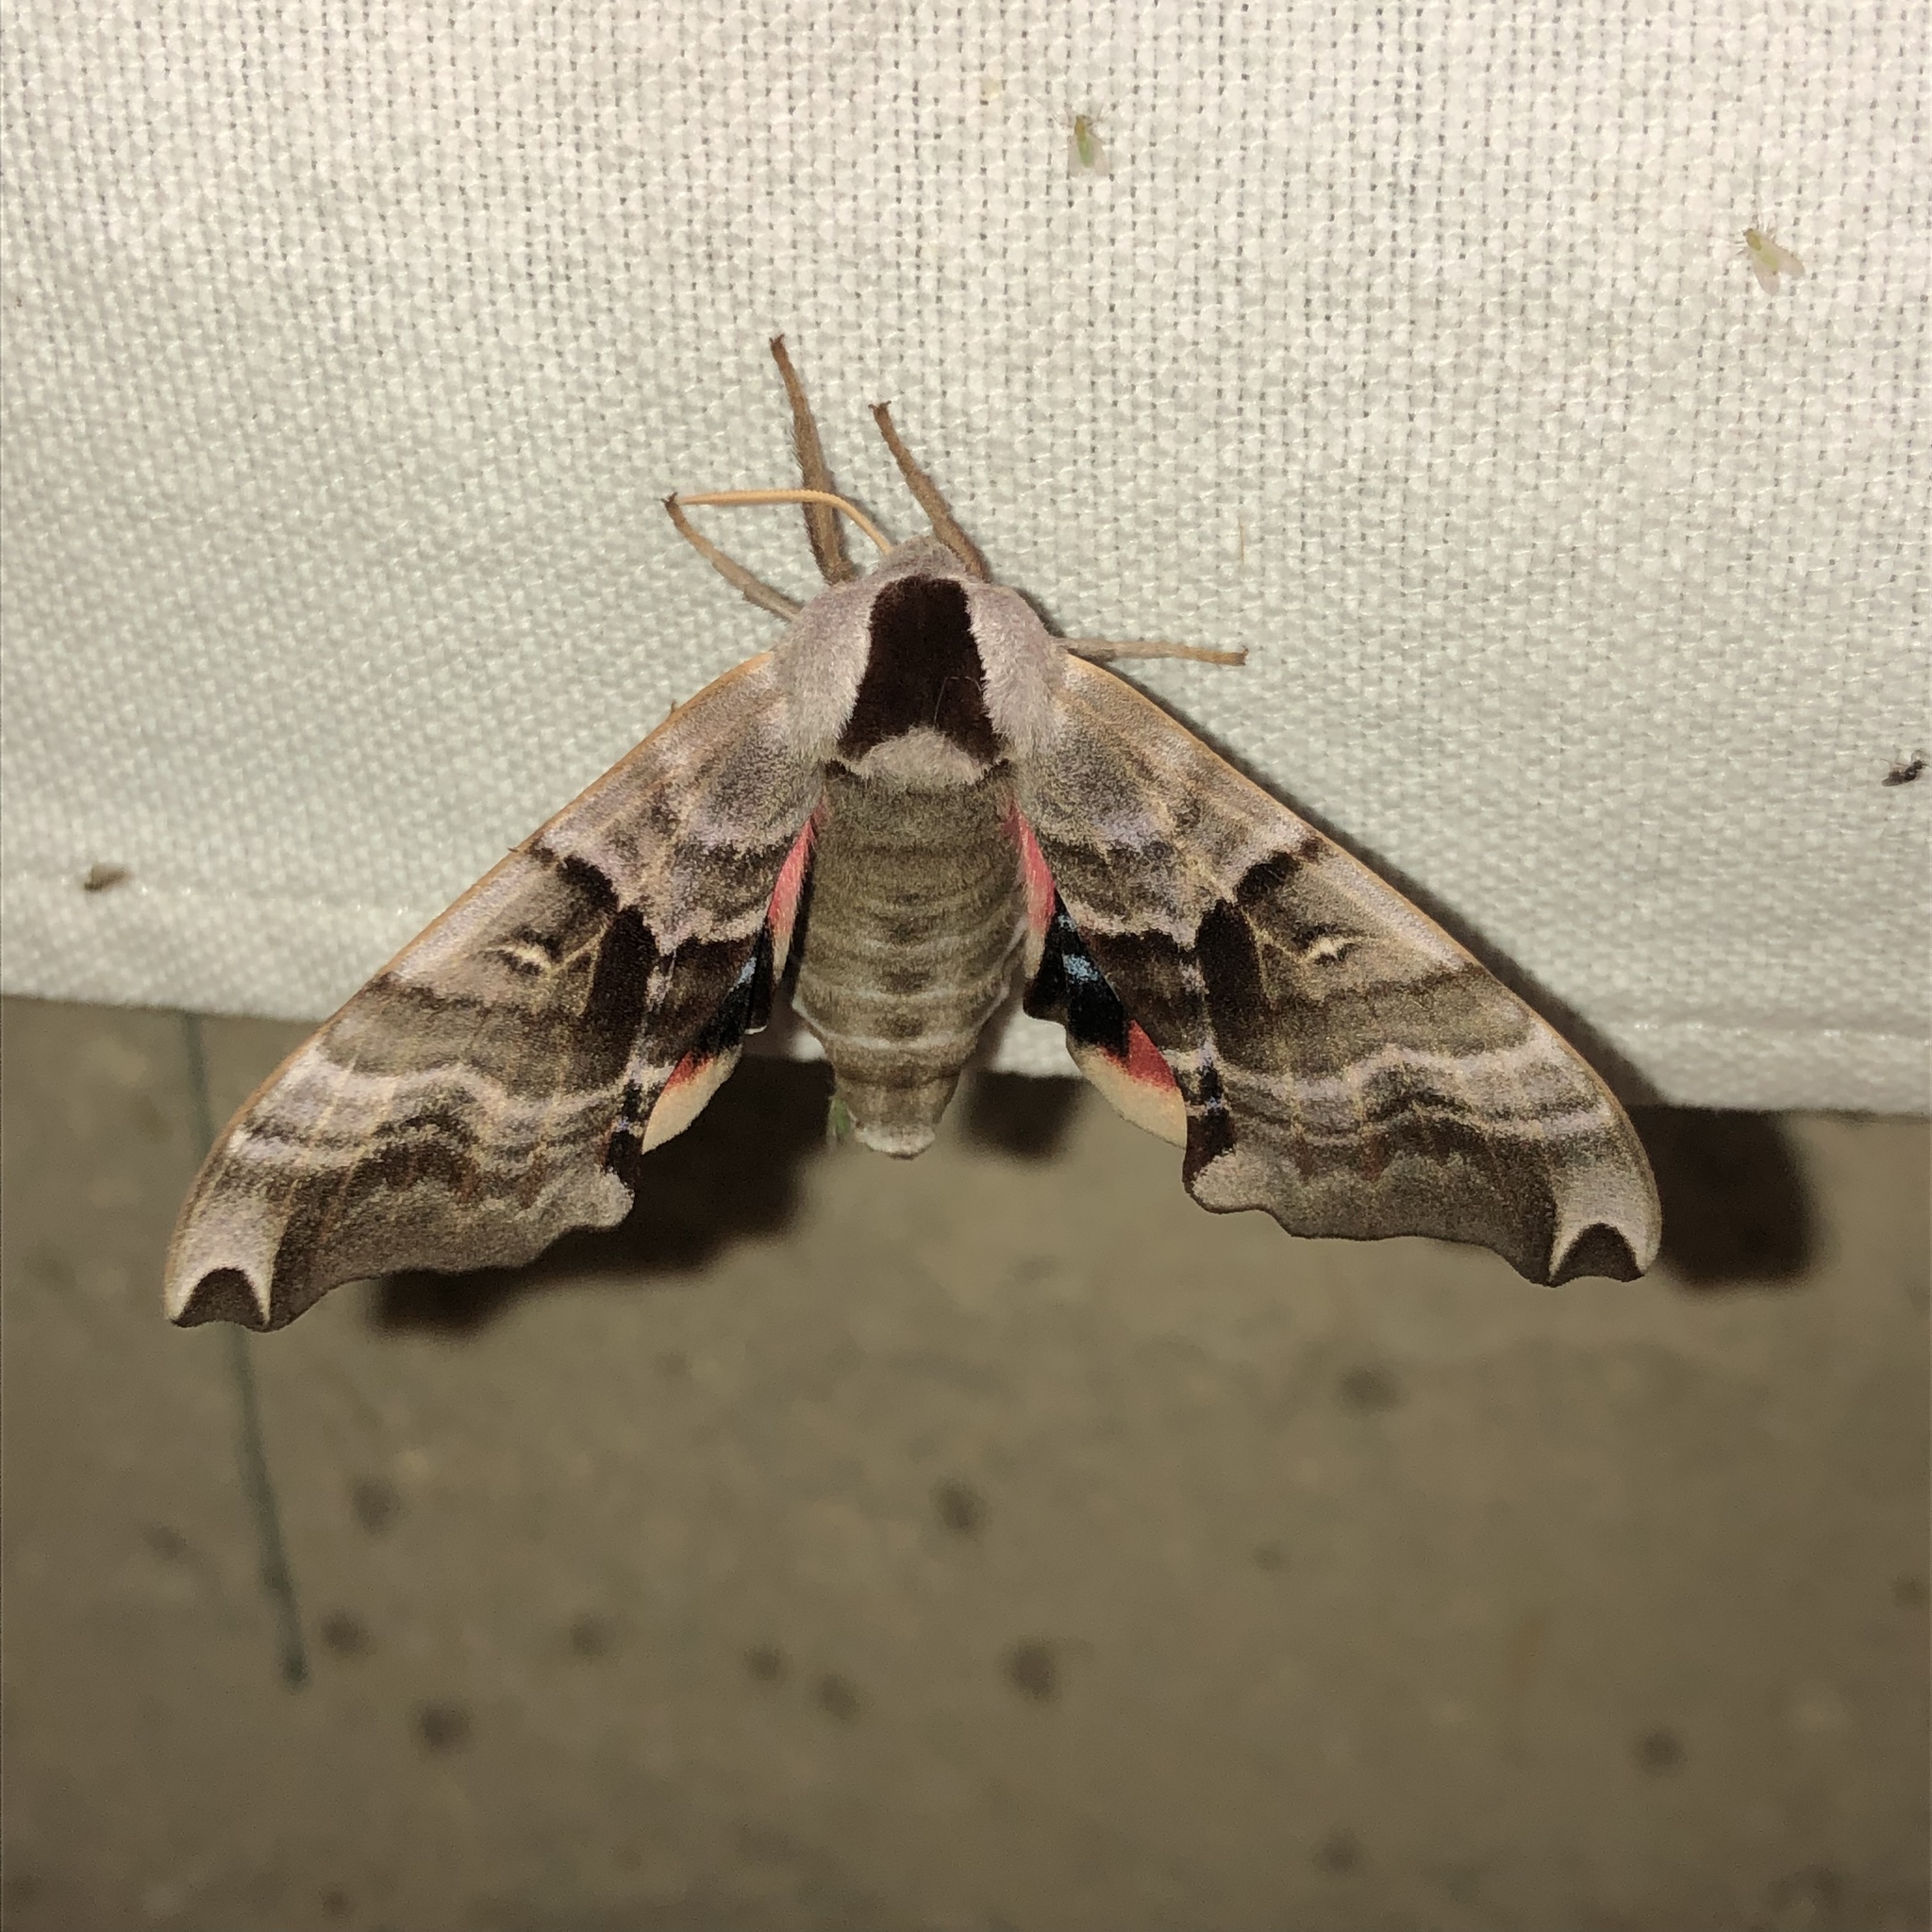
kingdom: Animalia
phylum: Arthropoda
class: Insecta
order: Lepidoptera
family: Sphingidae
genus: Smerinthus
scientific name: Smerinthus jamaicensis
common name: Twin spotted sphinx
